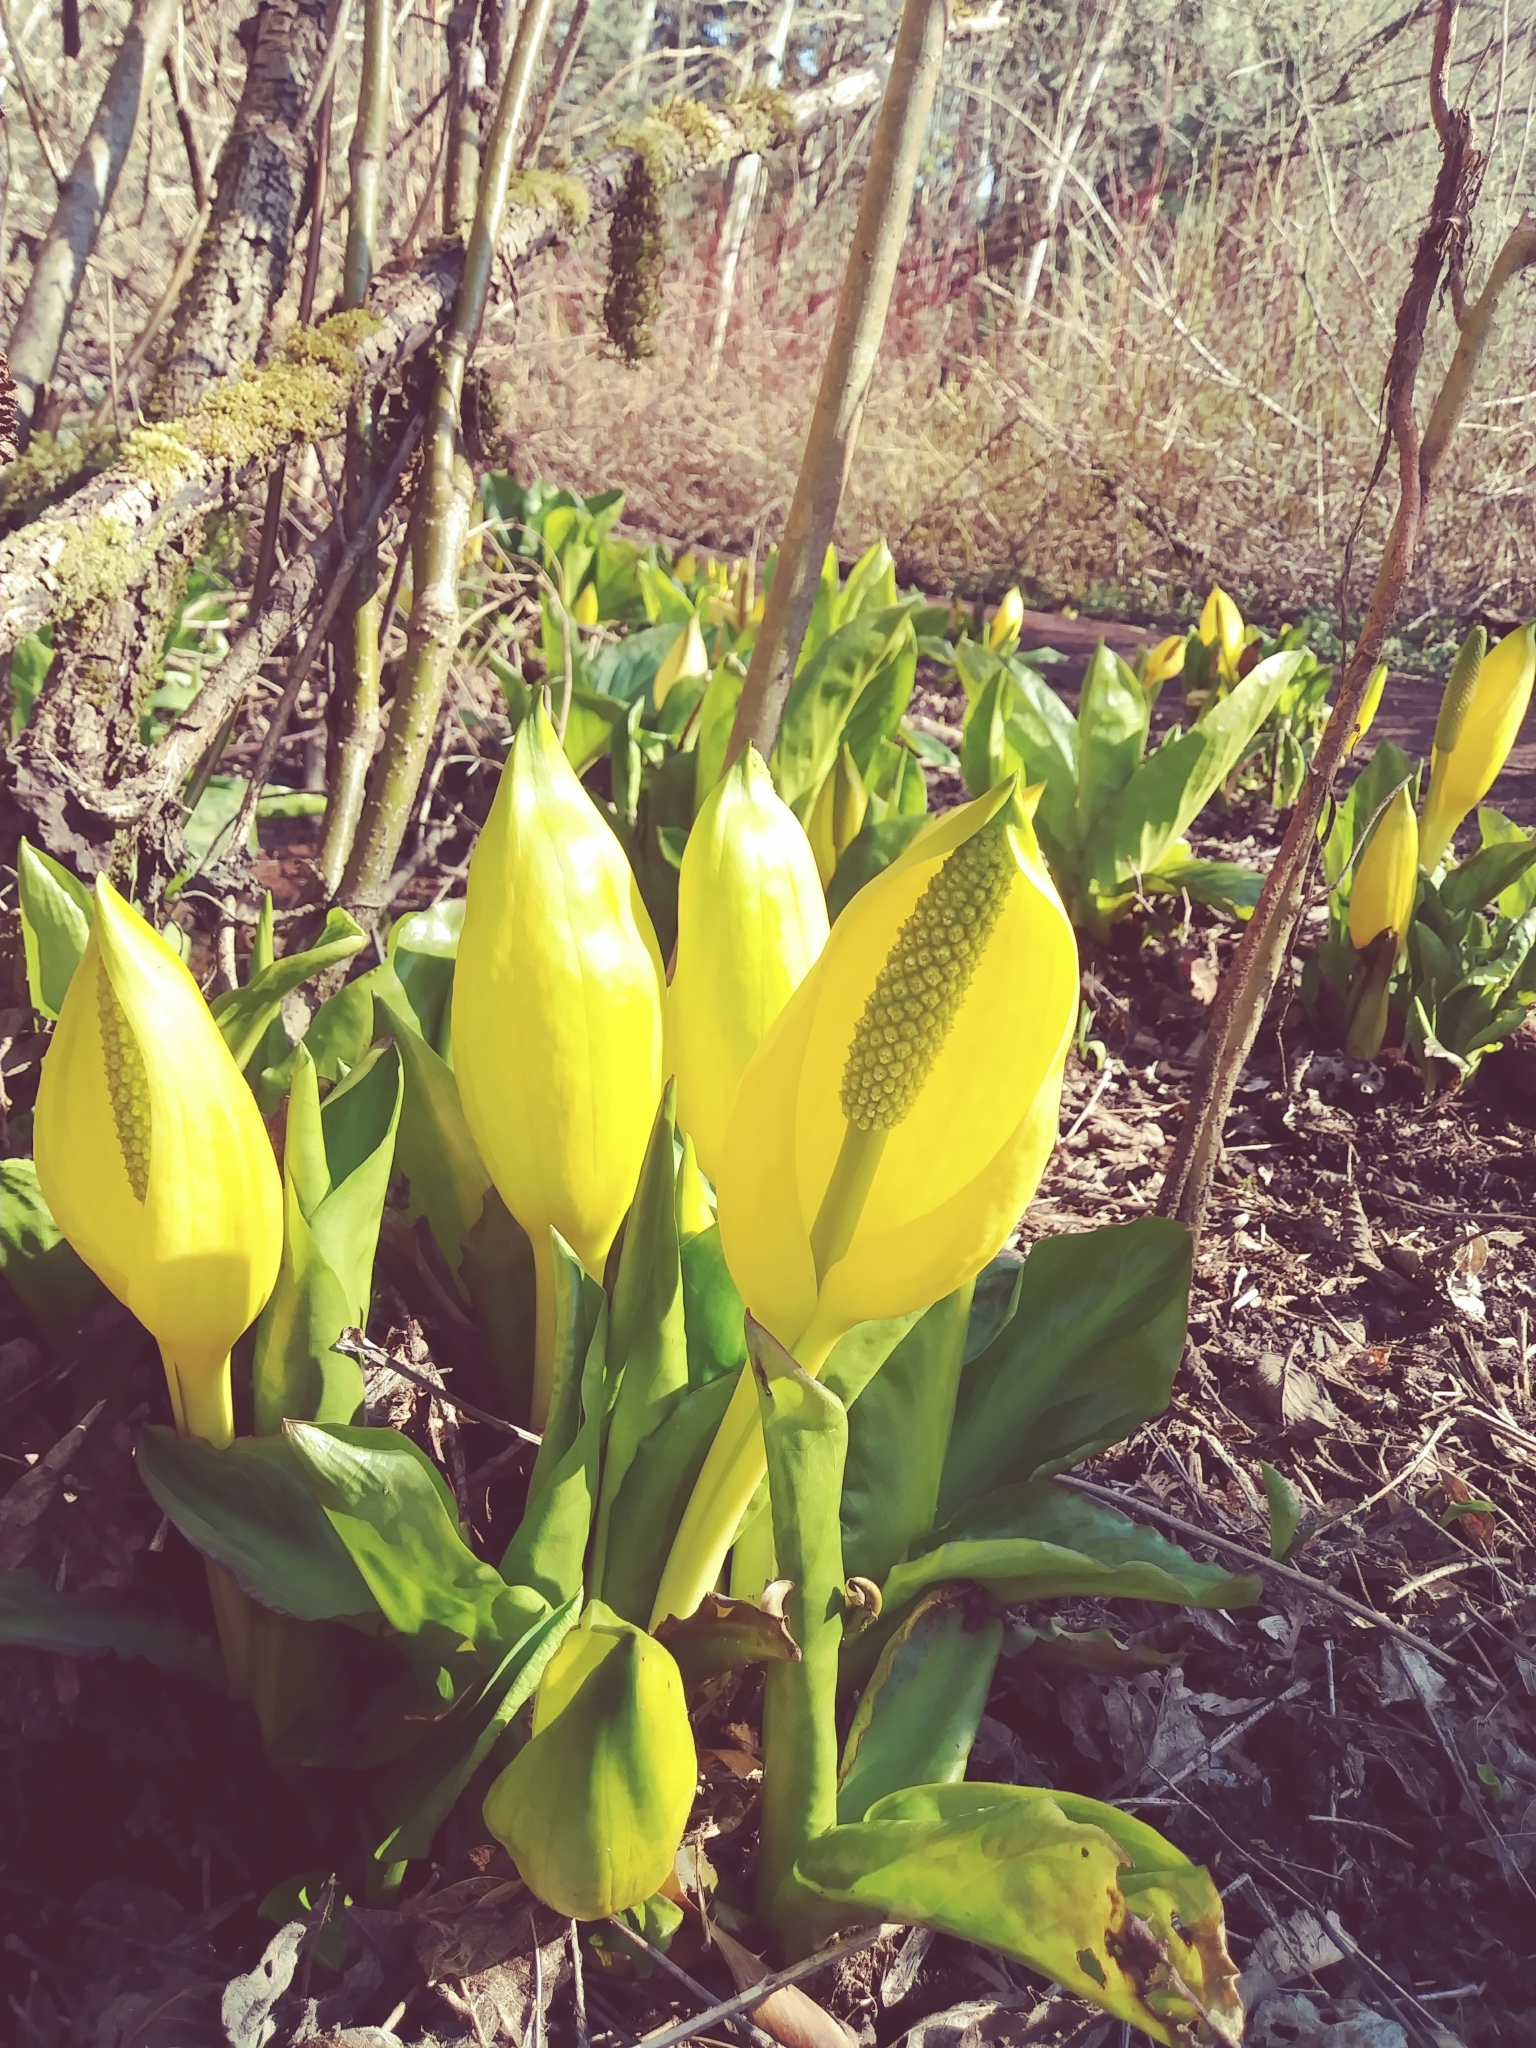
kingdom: Plantae
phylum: Tracheophyta
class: Liliopsida
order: Alismatales
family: Araceae
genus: Lysichiton
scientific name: Lysichiton americanus
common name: American skunk cabbage
